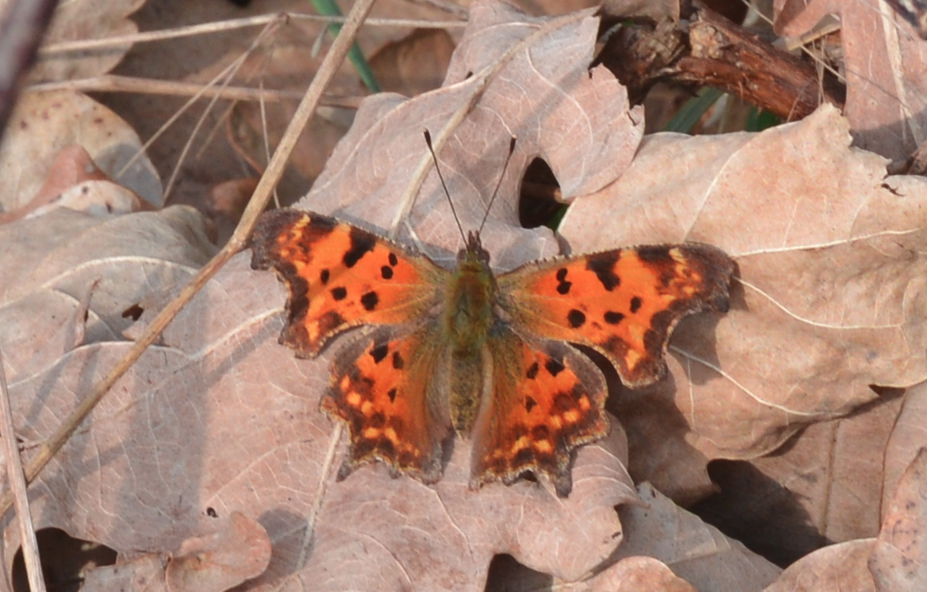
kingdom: Animalia
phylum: Arthropoda
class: Insecta
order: Lepidoptera
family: Nymphalidae
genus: Polygonia
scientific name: Polygonia c-album
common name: Comma
